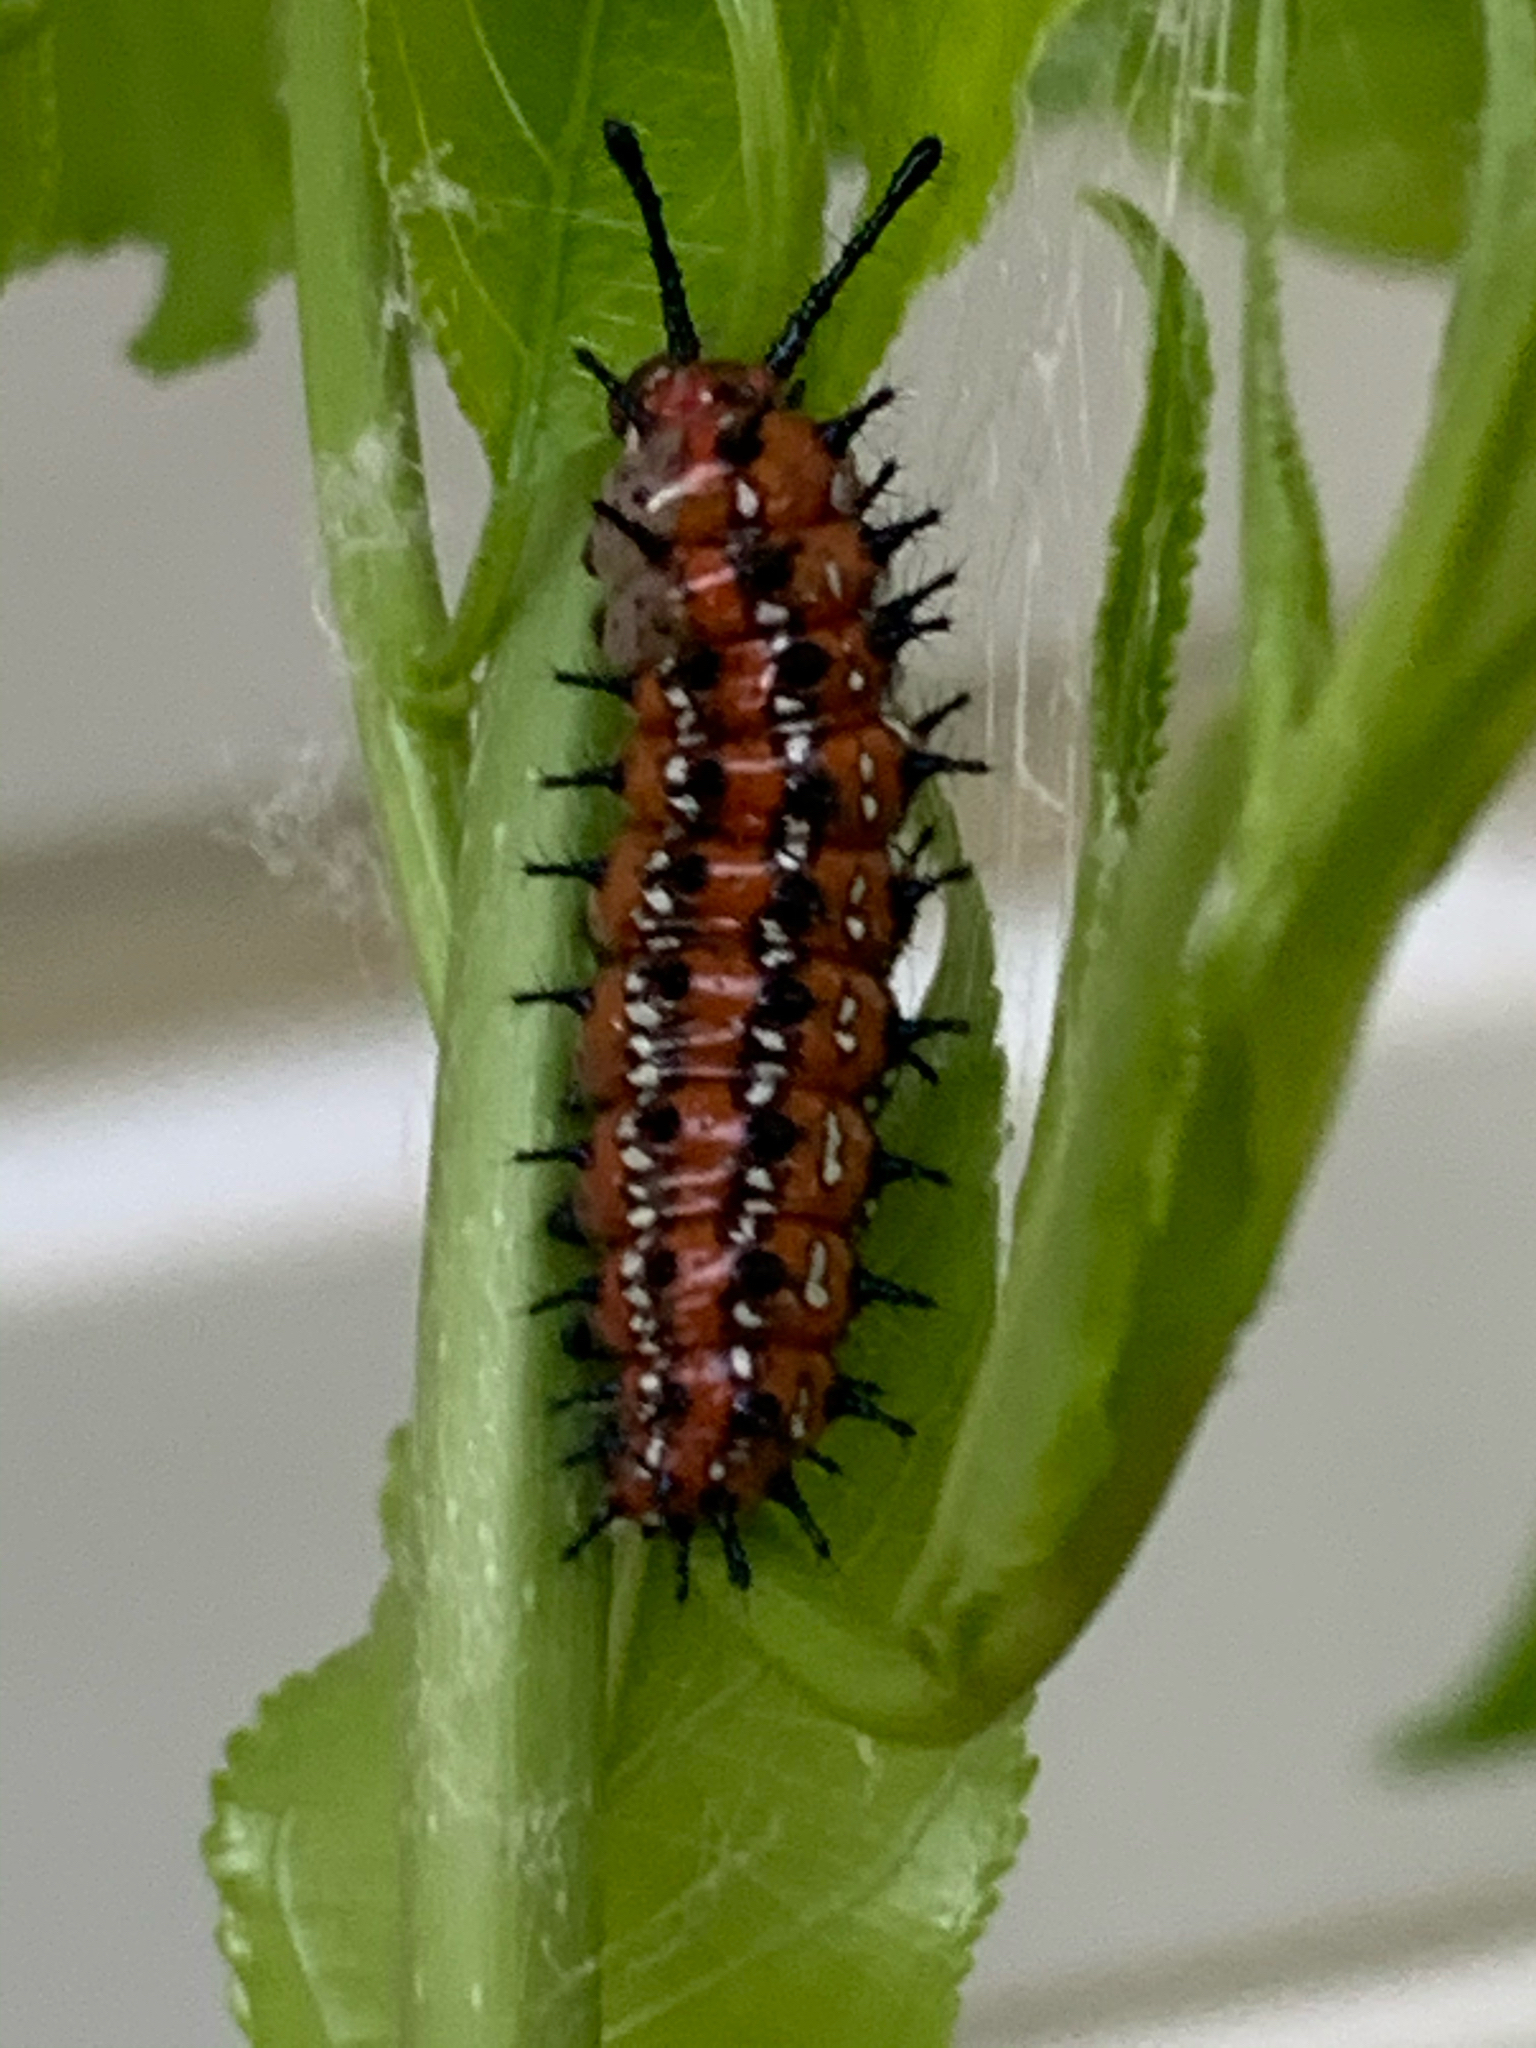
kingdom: Animalia
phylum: Arthropoda
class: Insecta
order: Lepidoptera
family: Nymphalidae
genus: Euptoieta
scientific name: Euptoieta claudia
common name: Variegated fritillary
